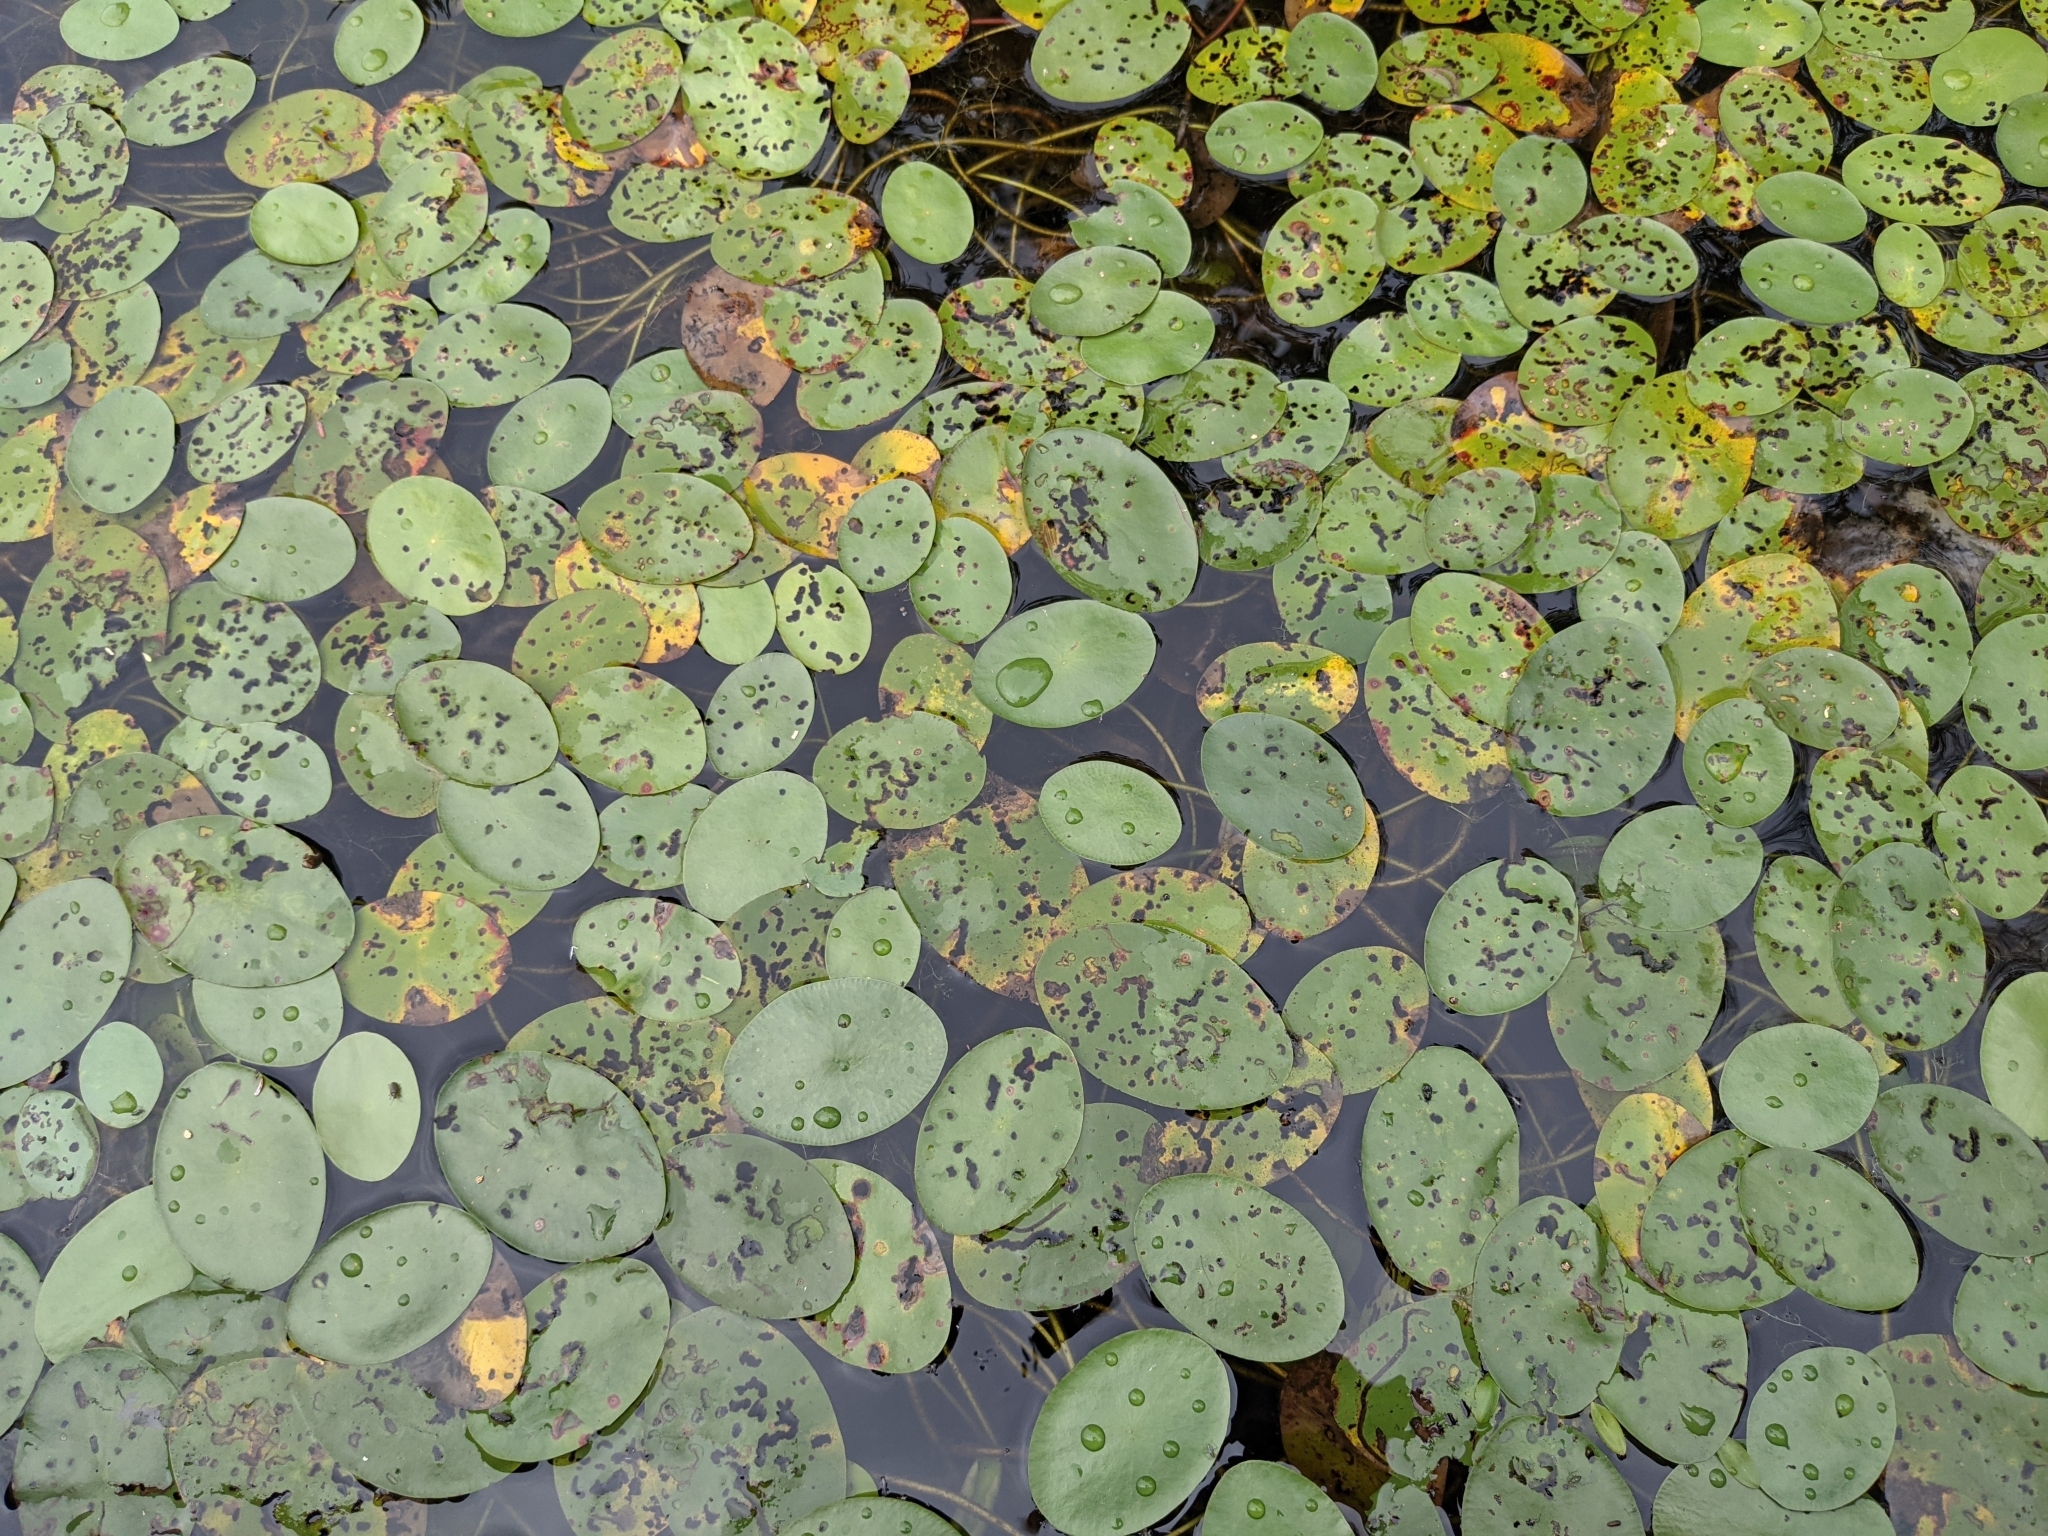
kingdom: Plantae
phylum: Tracheophyta
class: Magnoliopsida
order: Nymphaeales
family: Cabombaceae
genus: Brasenia
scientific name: Brasenia schreberi
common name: Water-shield
